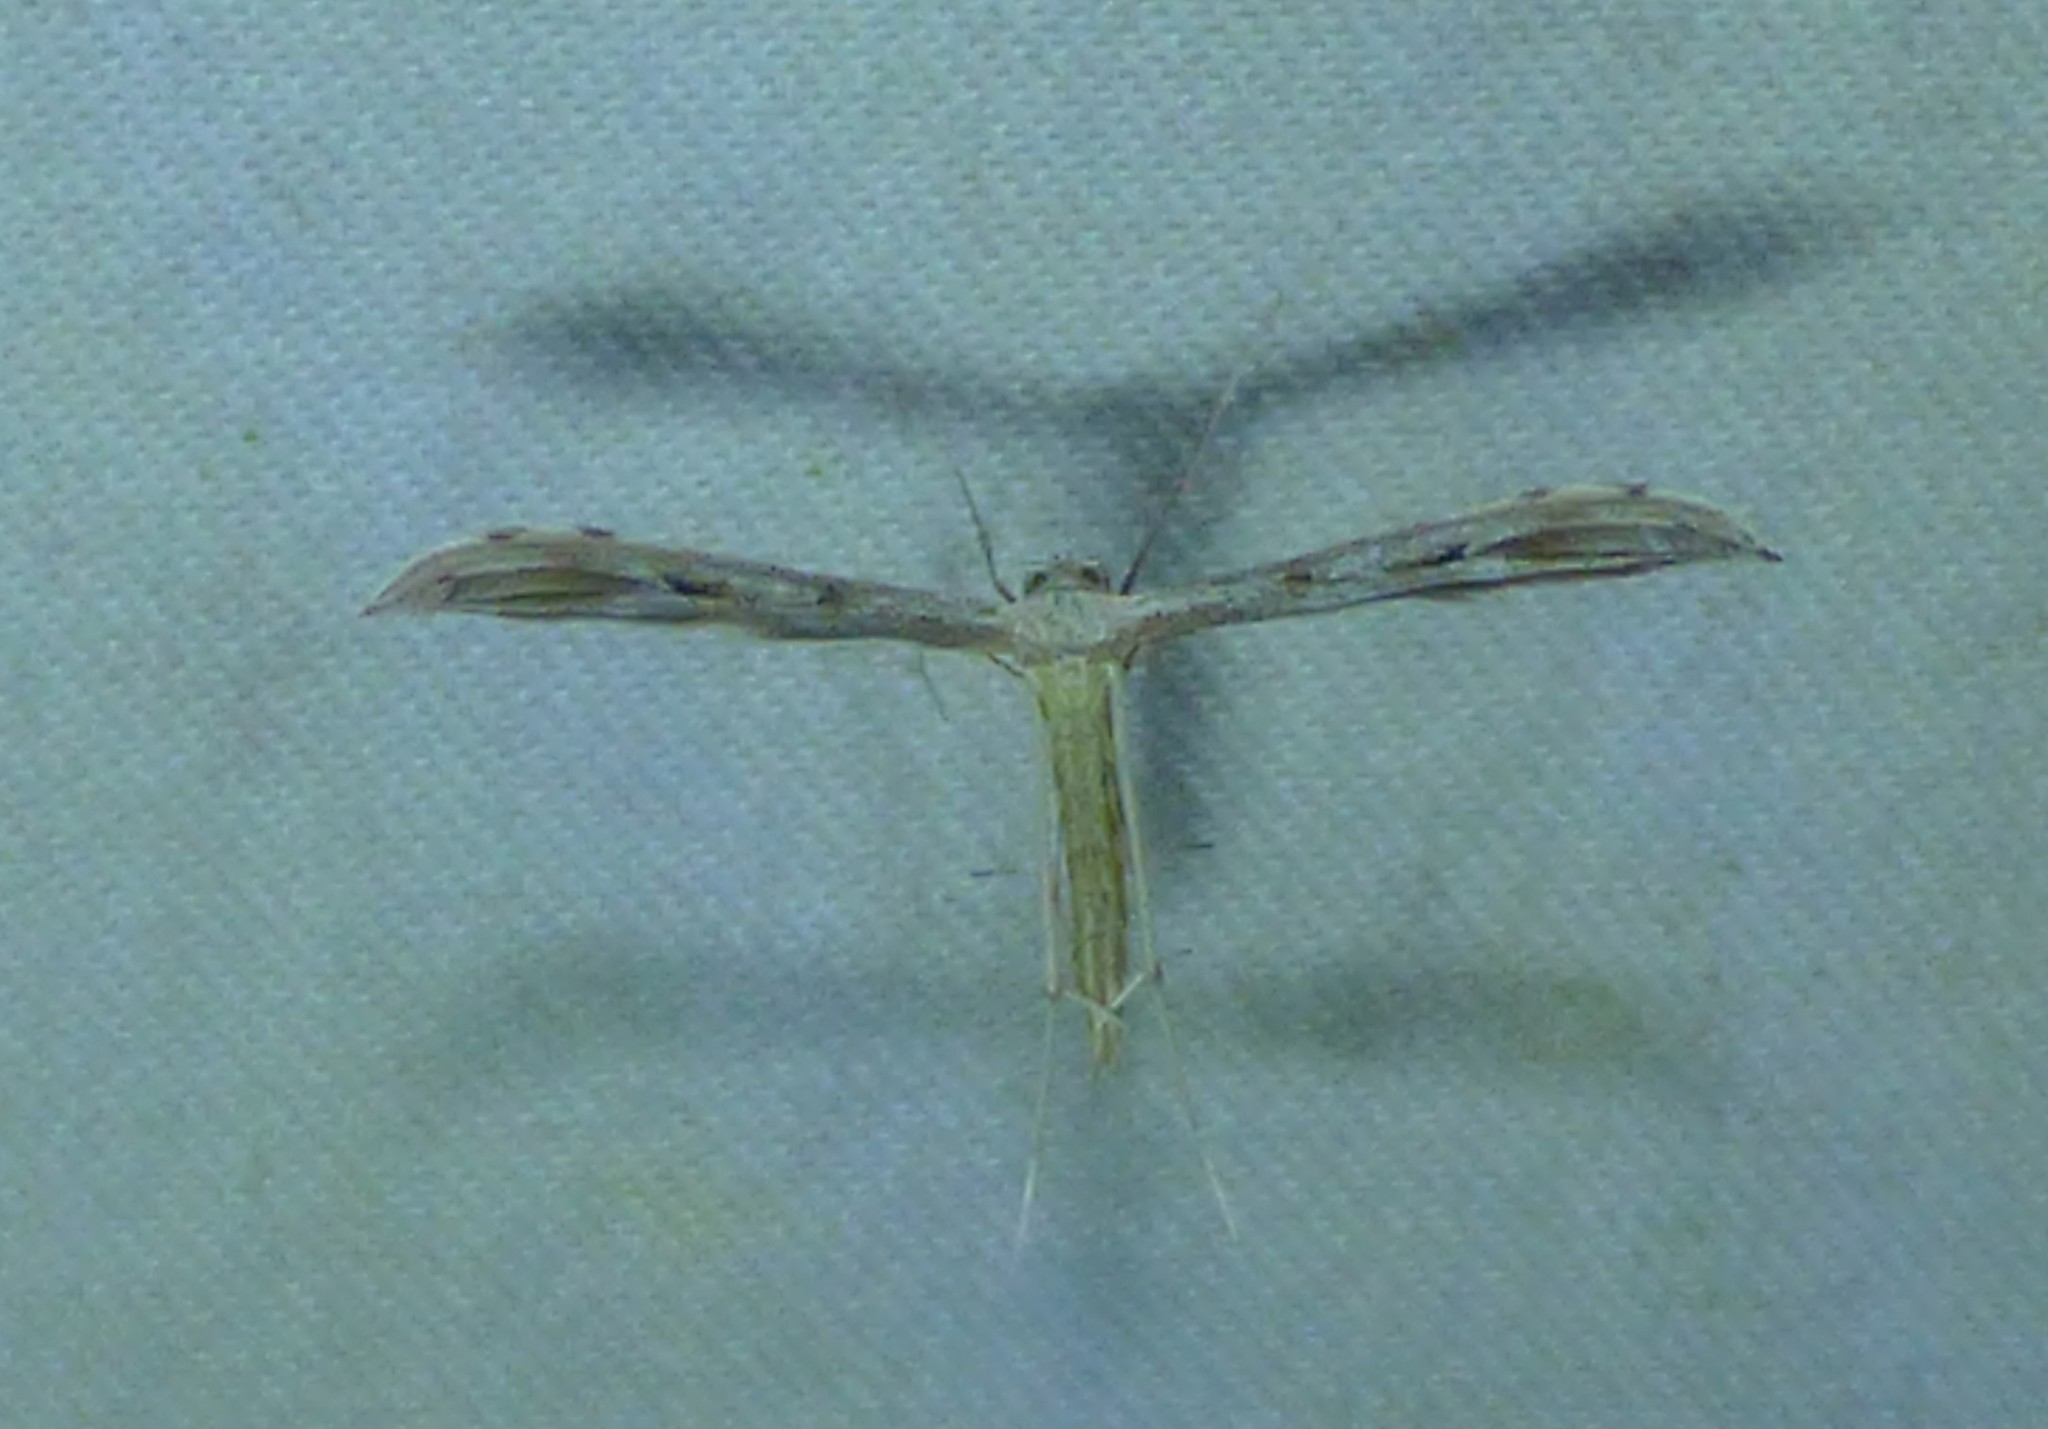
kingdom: Animalia
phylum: Arthropoda
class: Insecta
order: Lepidoptera
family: Pterophoridae
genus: Pselnophorus
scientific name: Pselnophorus belfragei
